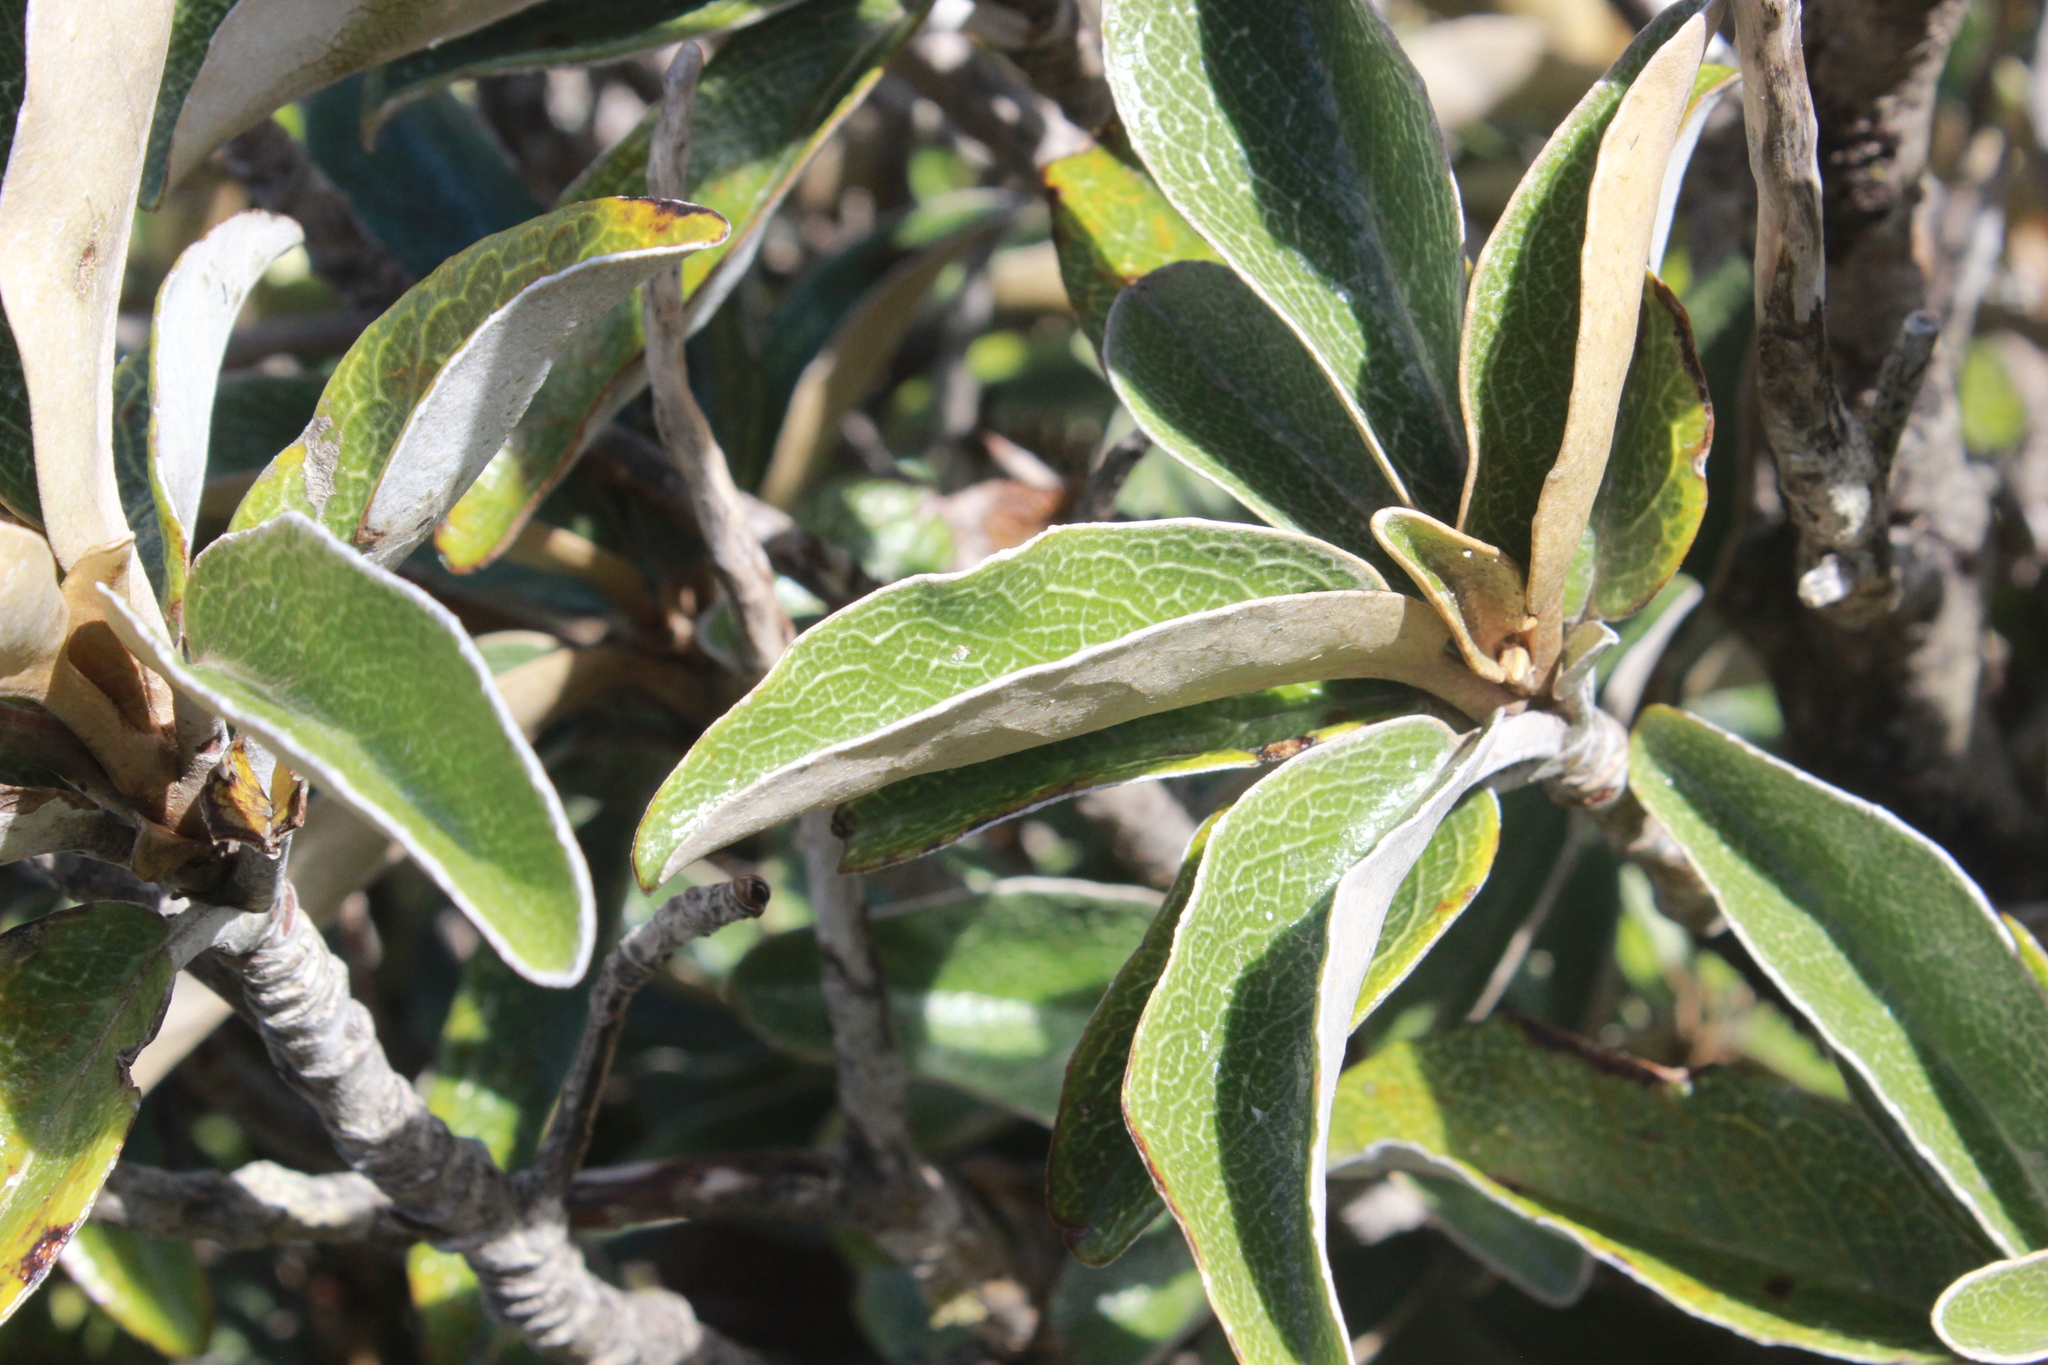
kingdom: Plantae
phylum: Tracheophyta
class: Magnoliopsida
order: Asterales
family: Asteraceae
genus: Brachyglottis
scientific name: Brachyglottis elaeagnifolia
